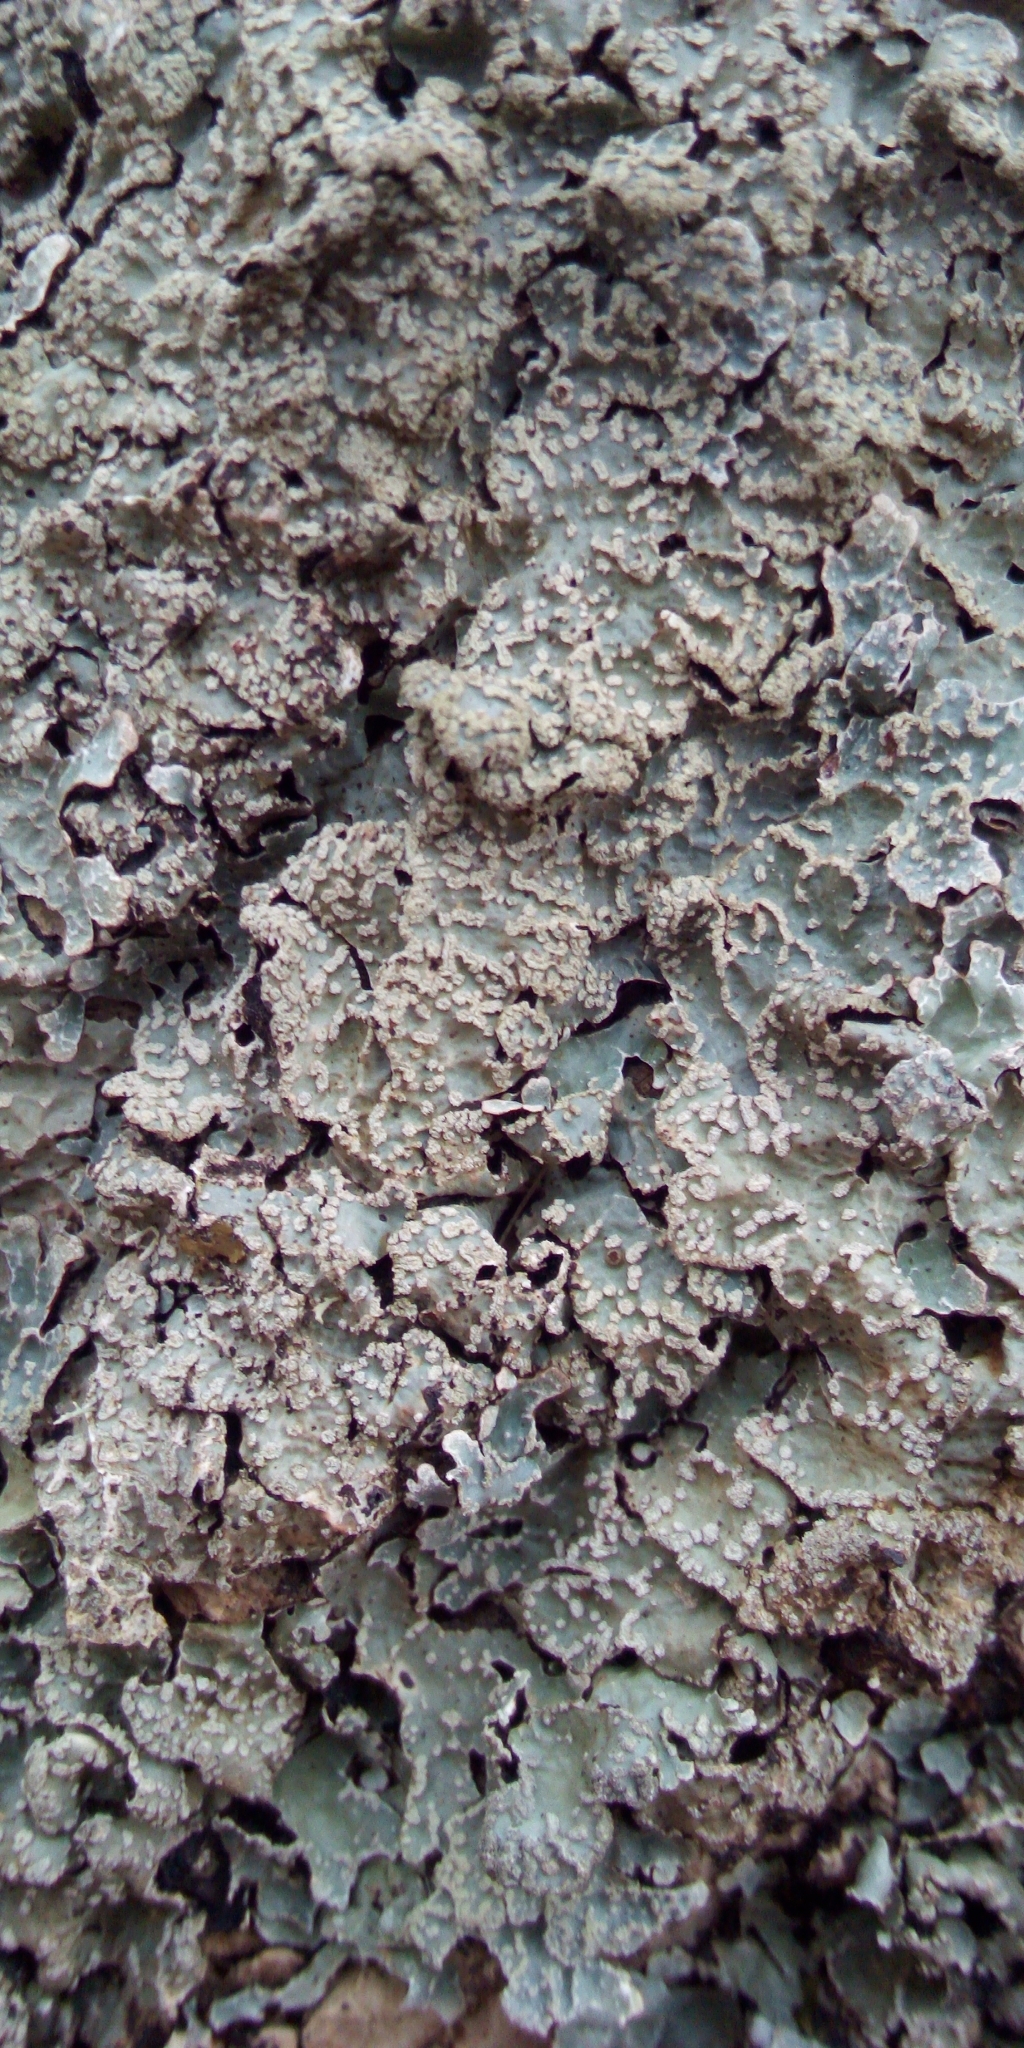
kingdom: Fungi
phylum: Ascomycota
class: Lecanoromycetes
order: Lecanorales
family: Parmeliaceae
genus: Parmelia
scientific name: Parmelia sulcata
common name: Netted shield lichen
